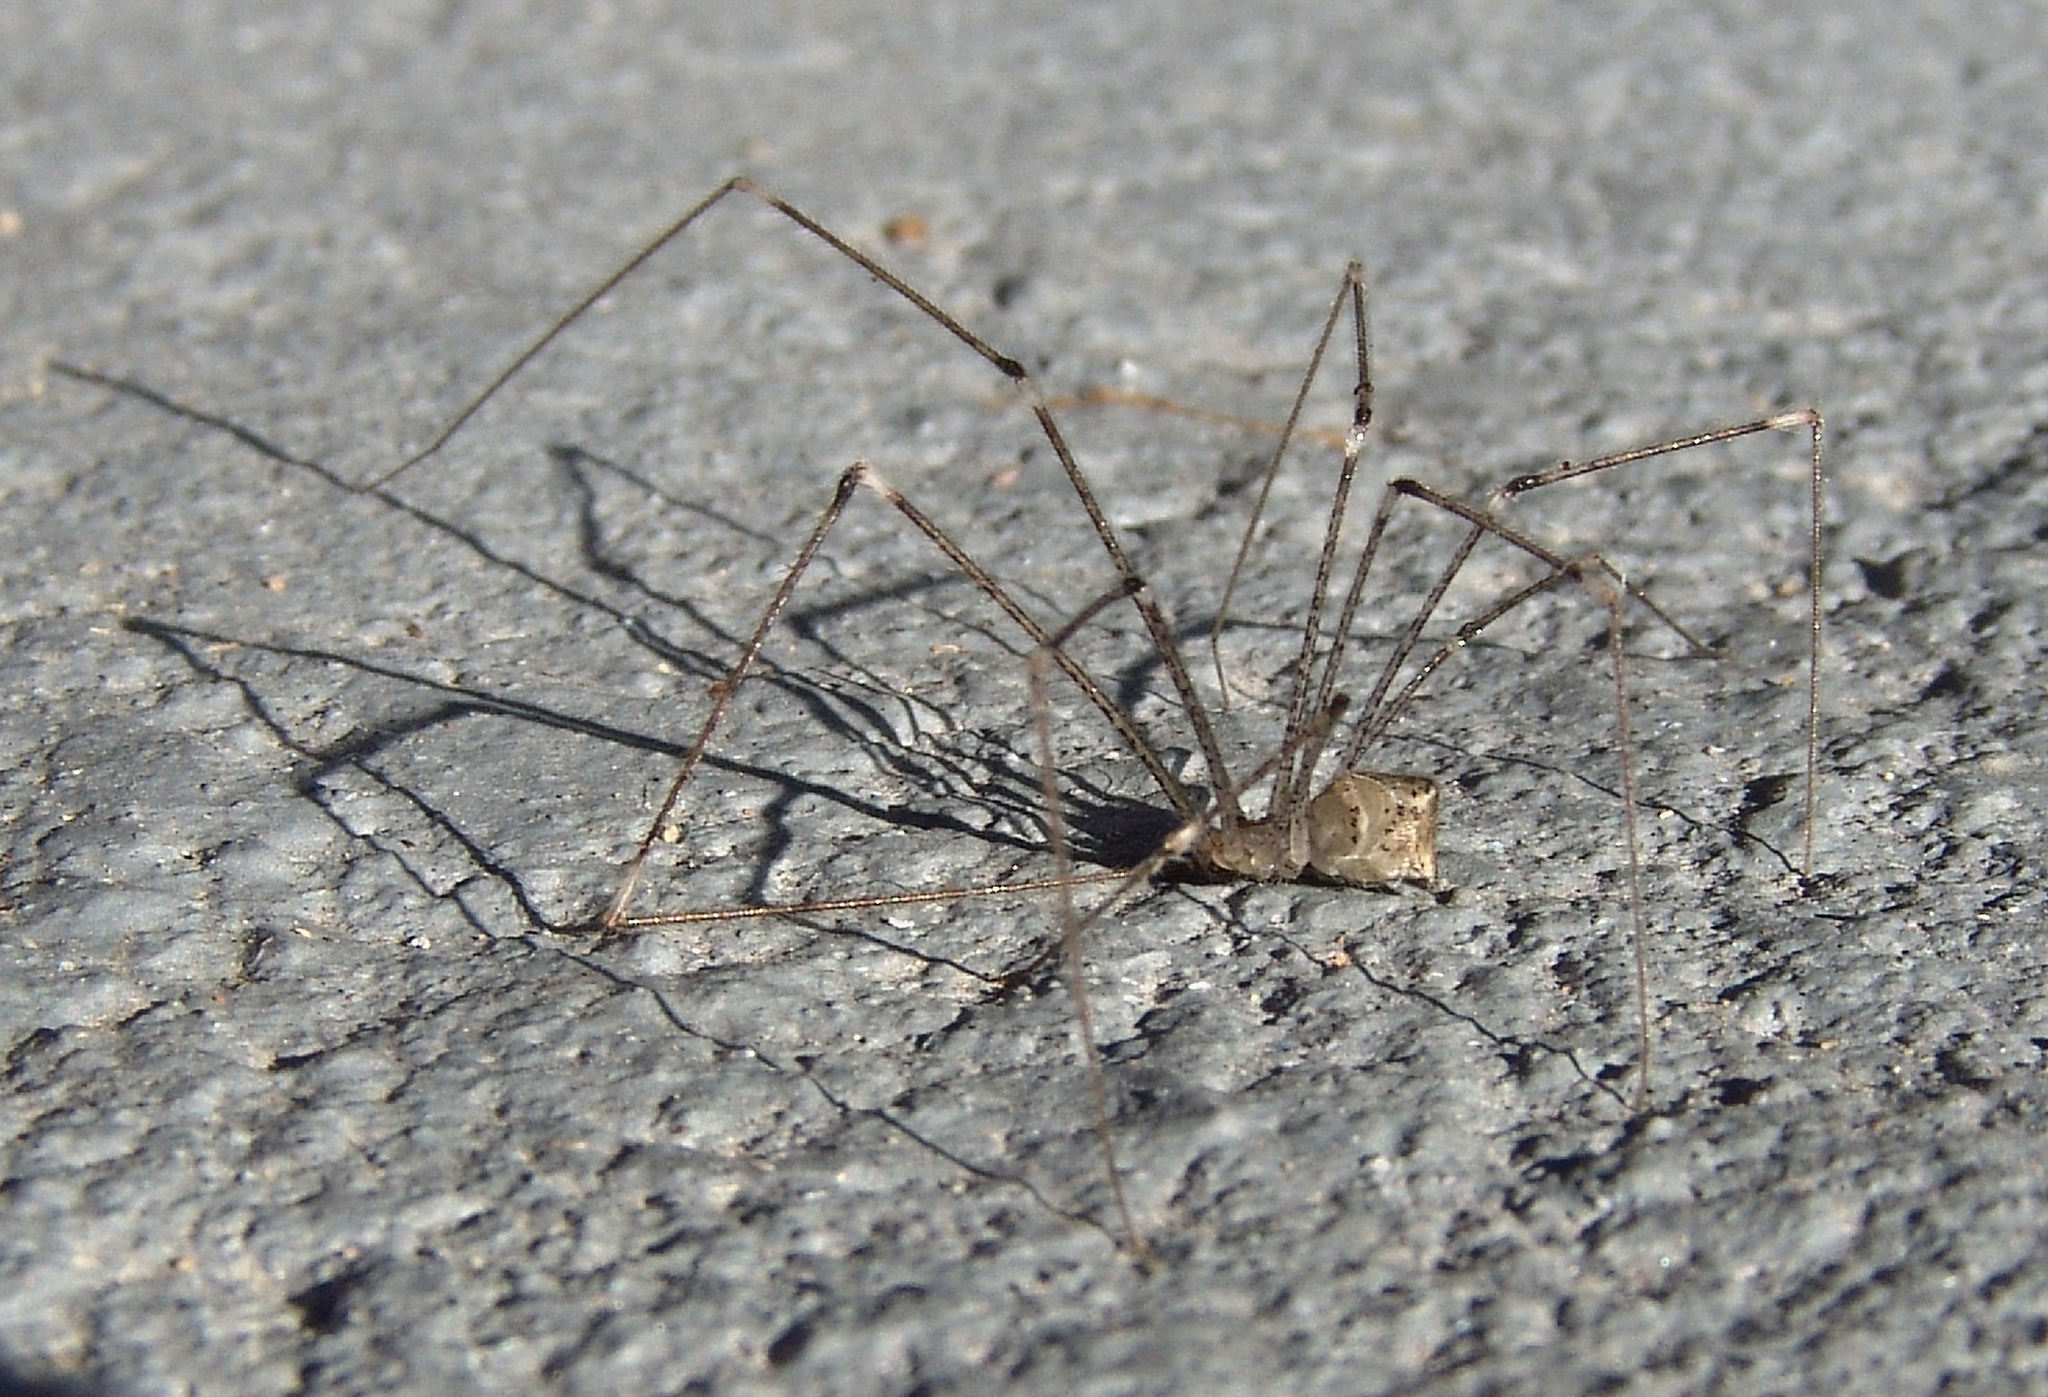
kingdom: Animalia
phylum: Arthropoda
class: Arachnida
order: Araneae
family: Pholcidae
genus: Crossopriza
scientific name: Crossopriza lyoni
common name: Cellar spiders
